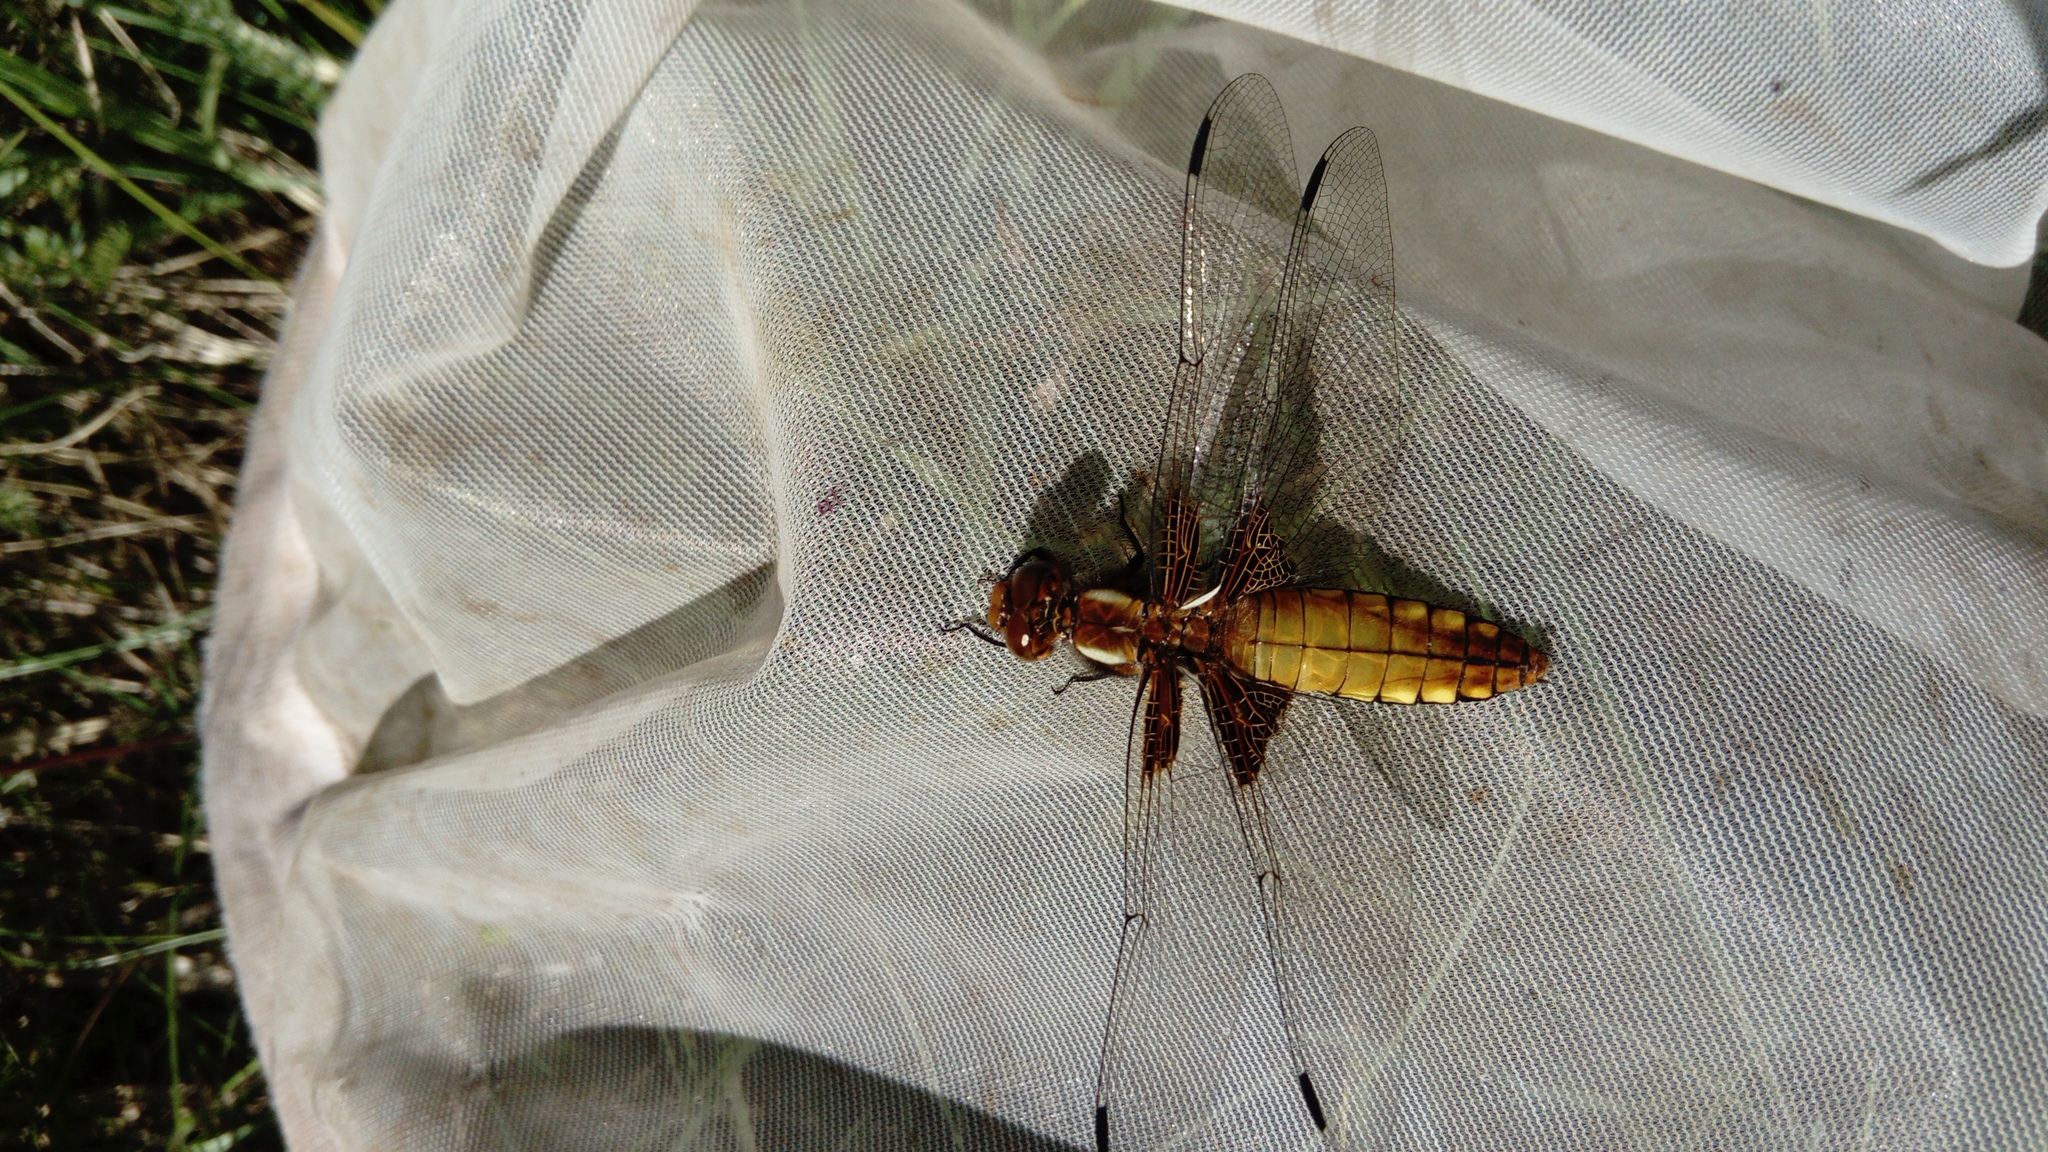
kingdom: Animalia
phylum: Arthropoda
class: Insecta
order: Odonata
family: Libellulidae
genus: Libellula
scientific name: Libellula depressa
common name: Broad-bodied chaser
